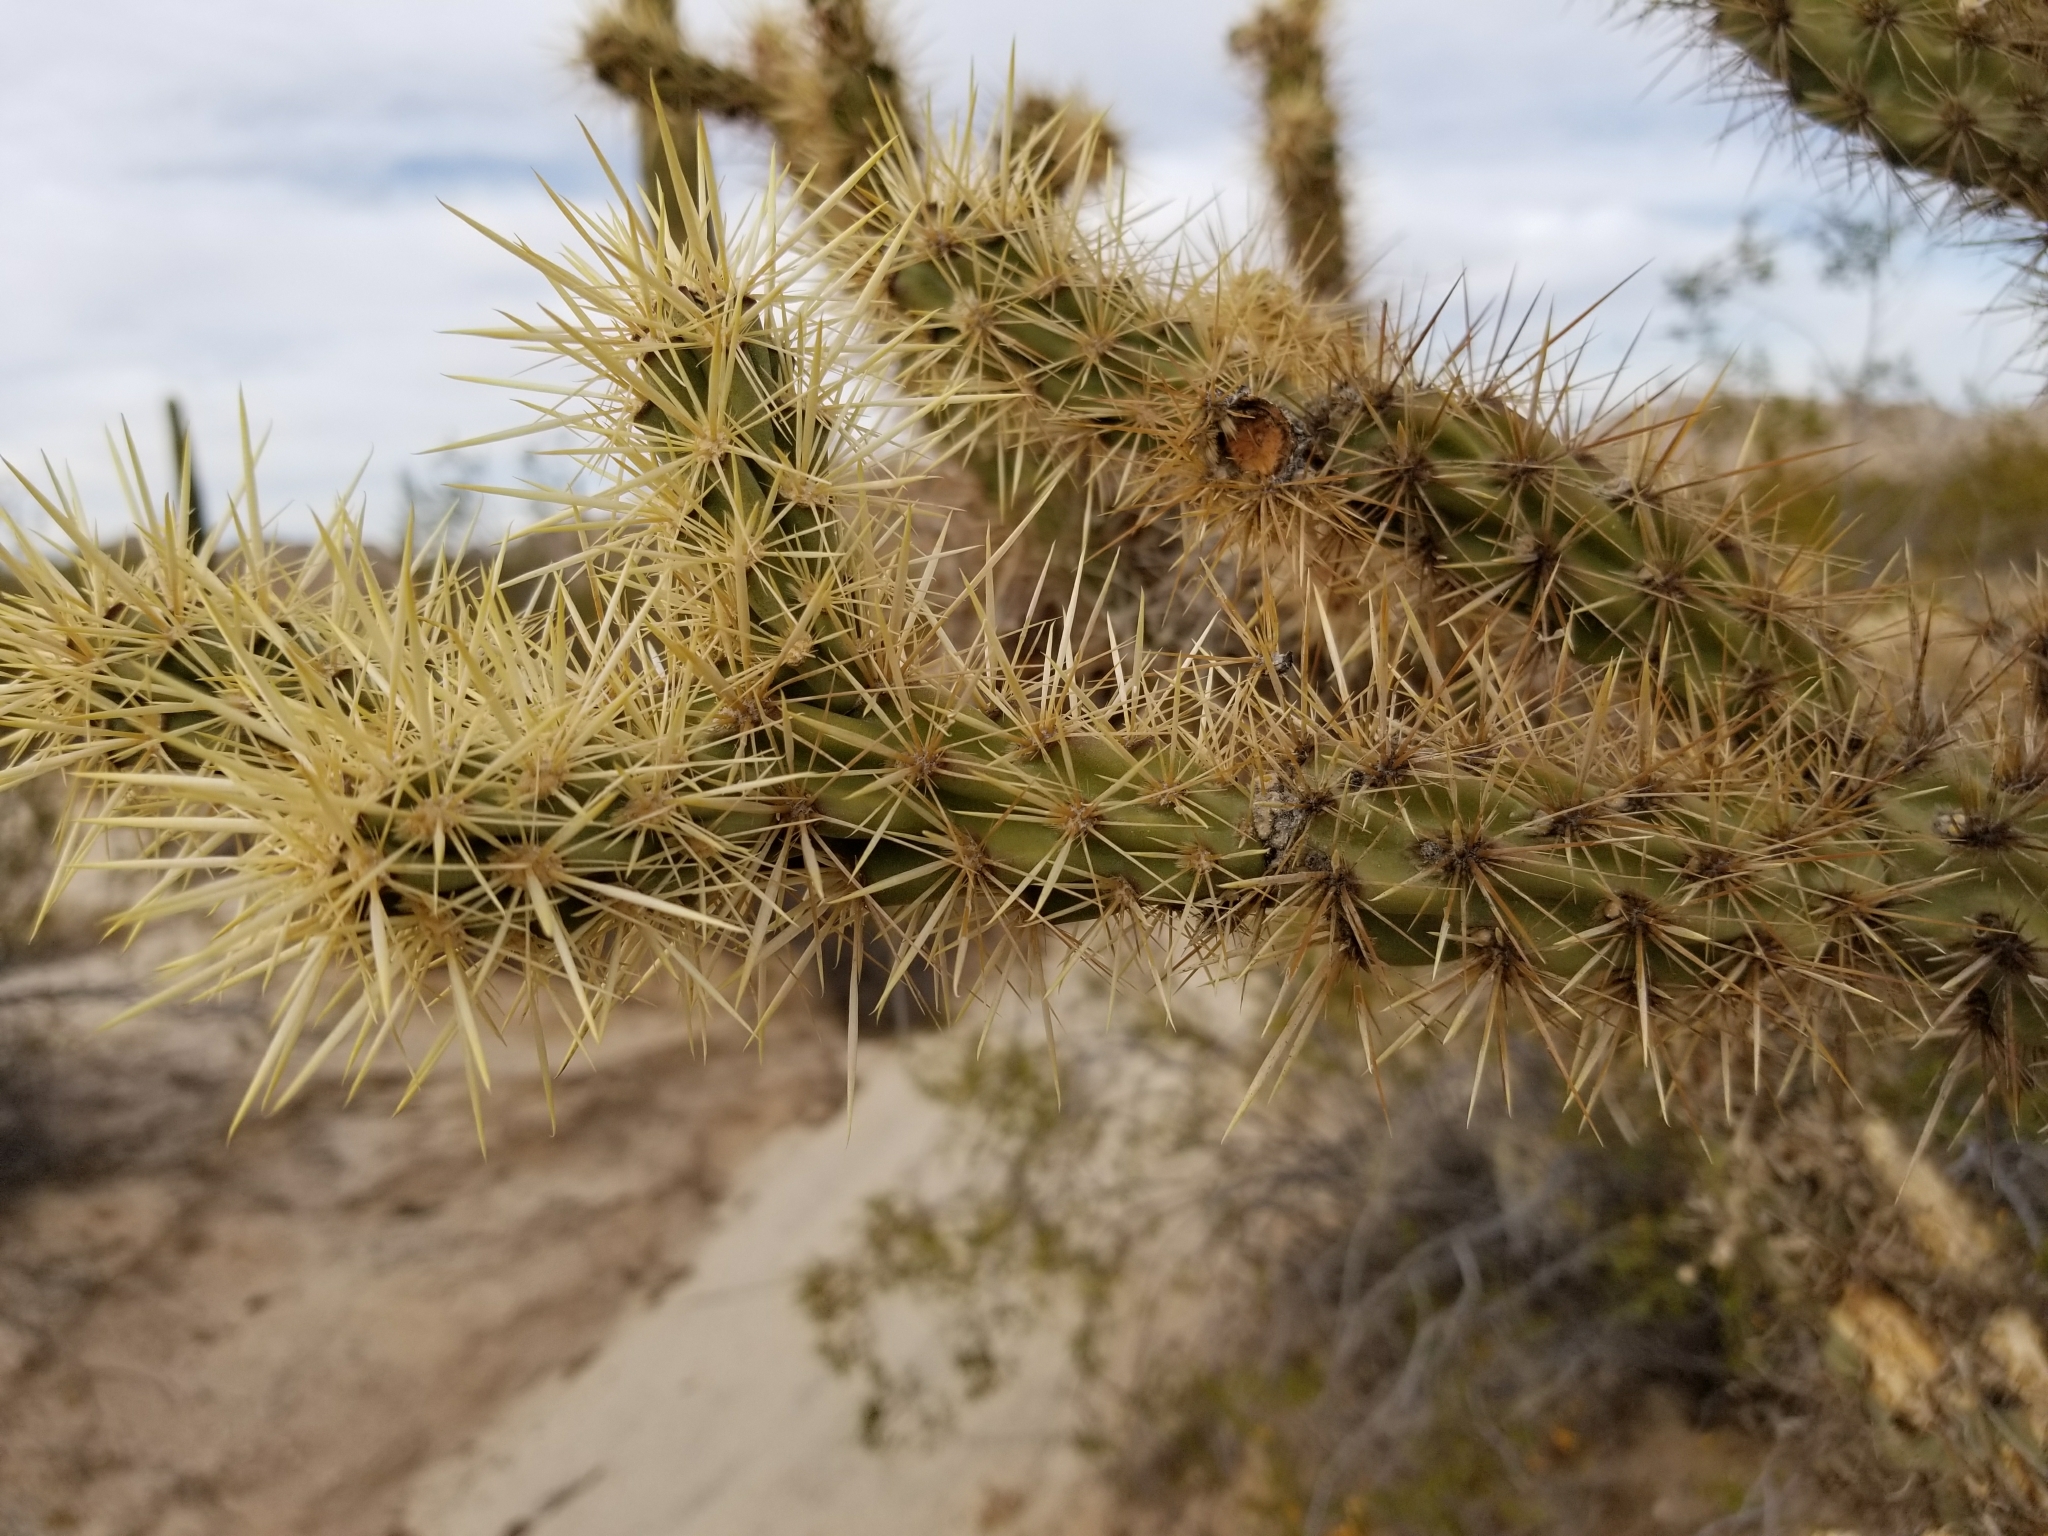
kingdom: Plantae
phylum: Tracheophyta
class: Magnoliopsida
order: Caryophyllales
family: Cactaceae
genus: Cylindropuntia
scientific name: Cylindropuntia acanthocarpa
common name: Buckhorn cholla
